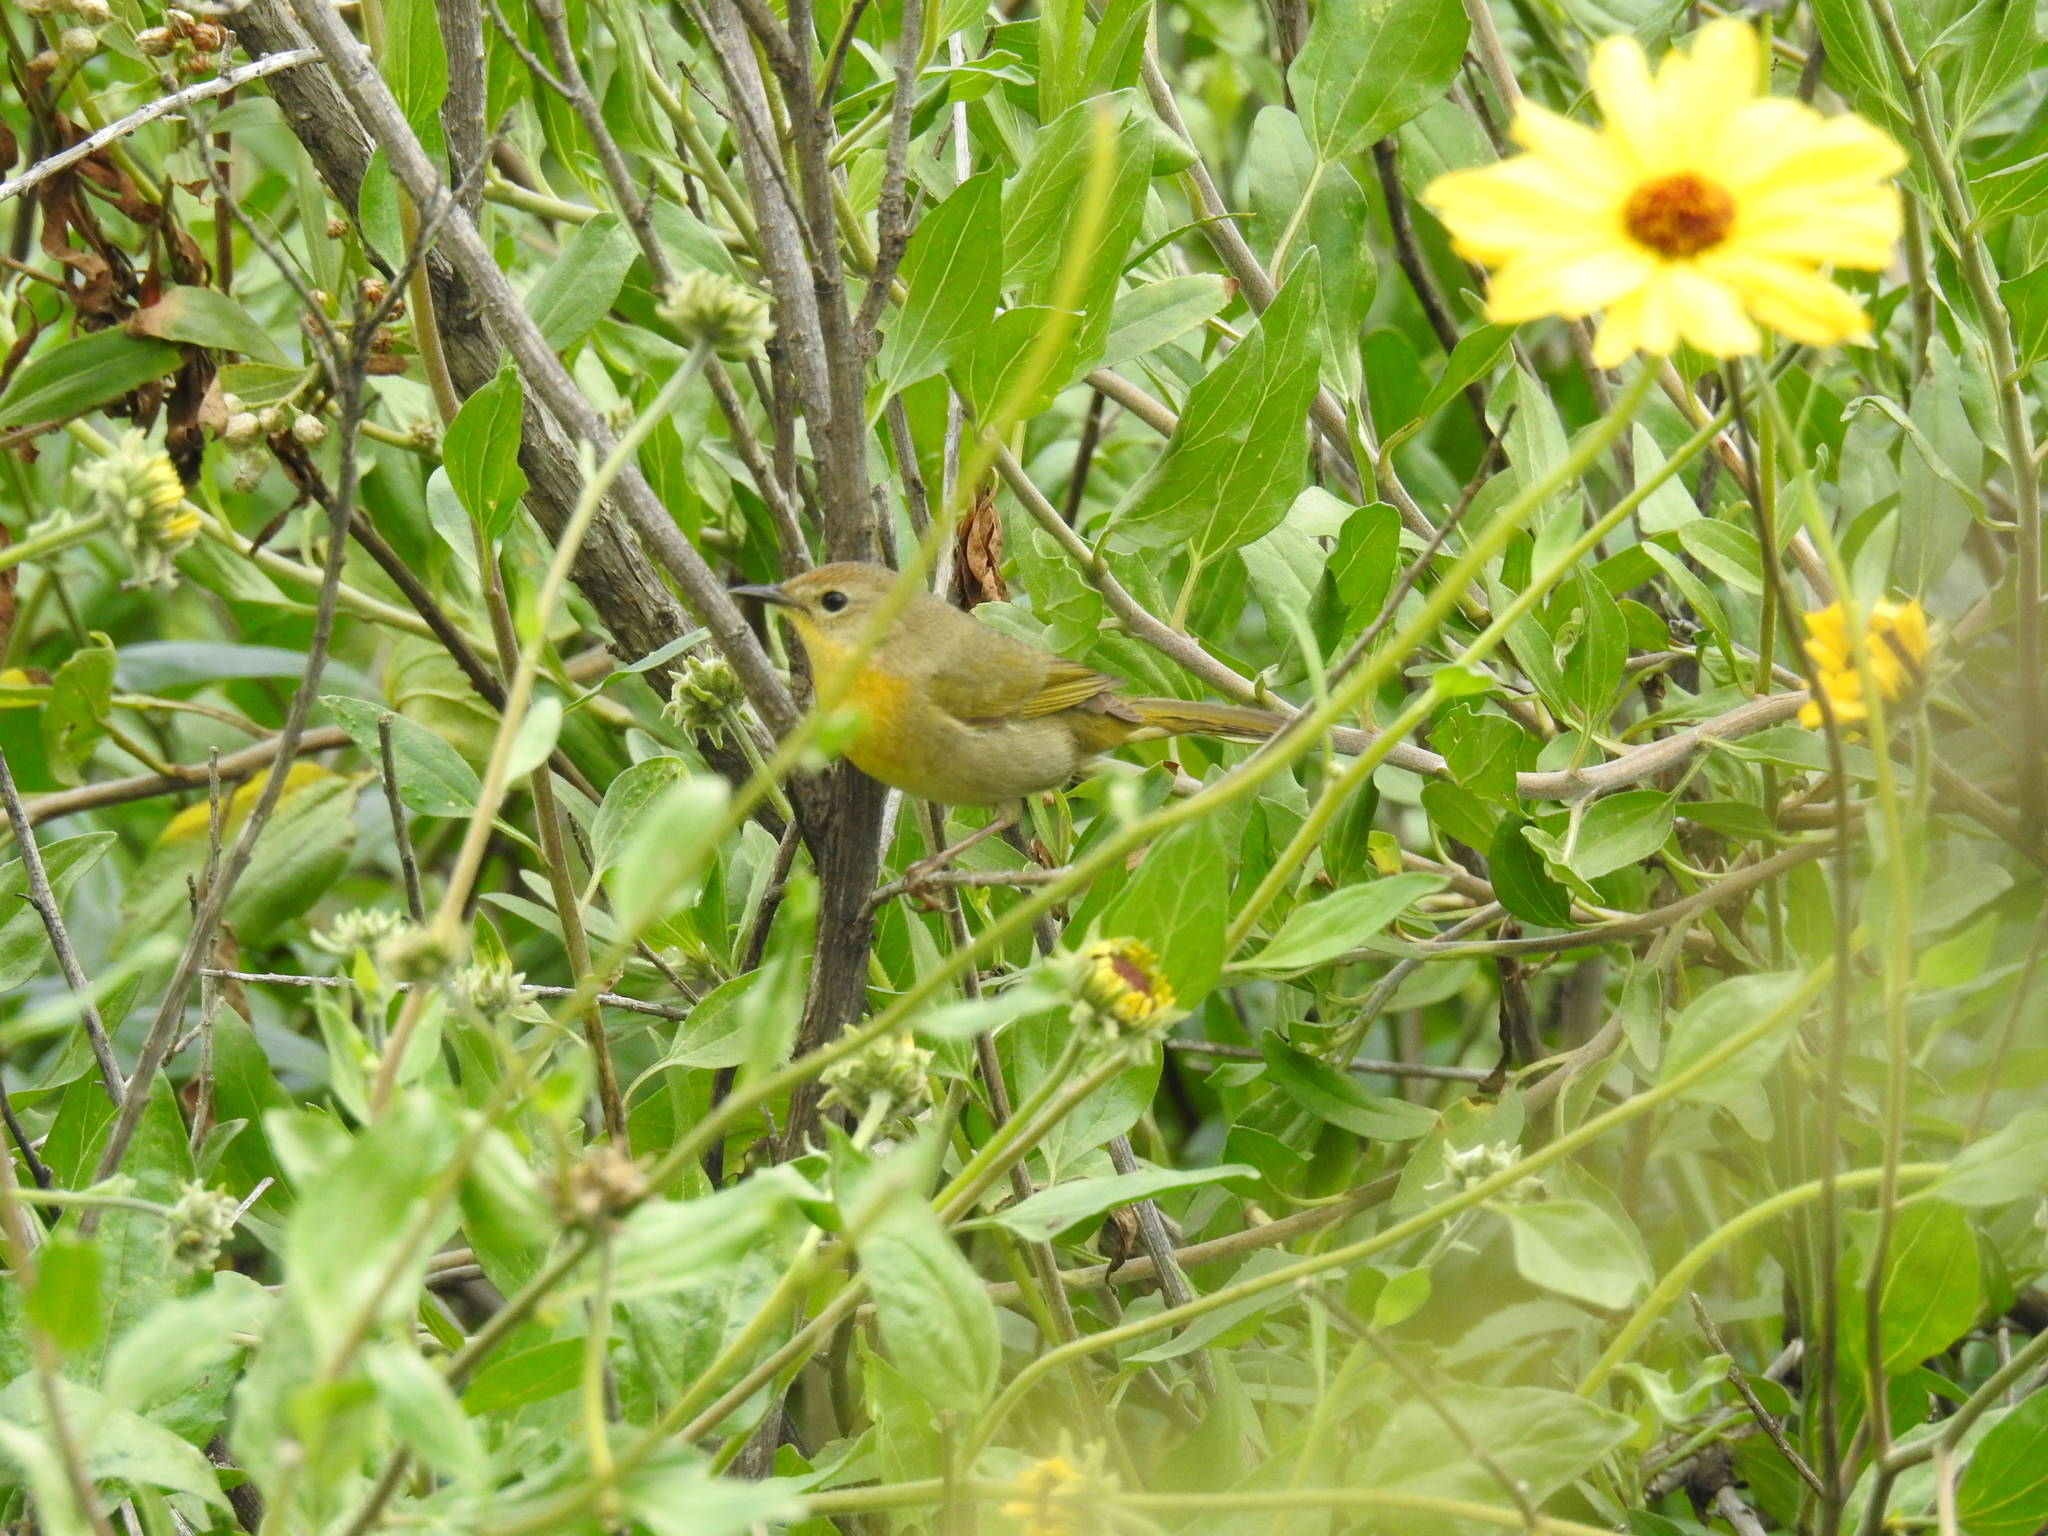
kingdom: Animalia
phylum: Chordata
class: Aves
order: Passeriformes
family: Parulidae
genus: Geothlypis
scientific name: Geothlypis trichas
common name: Common yellowthroat
